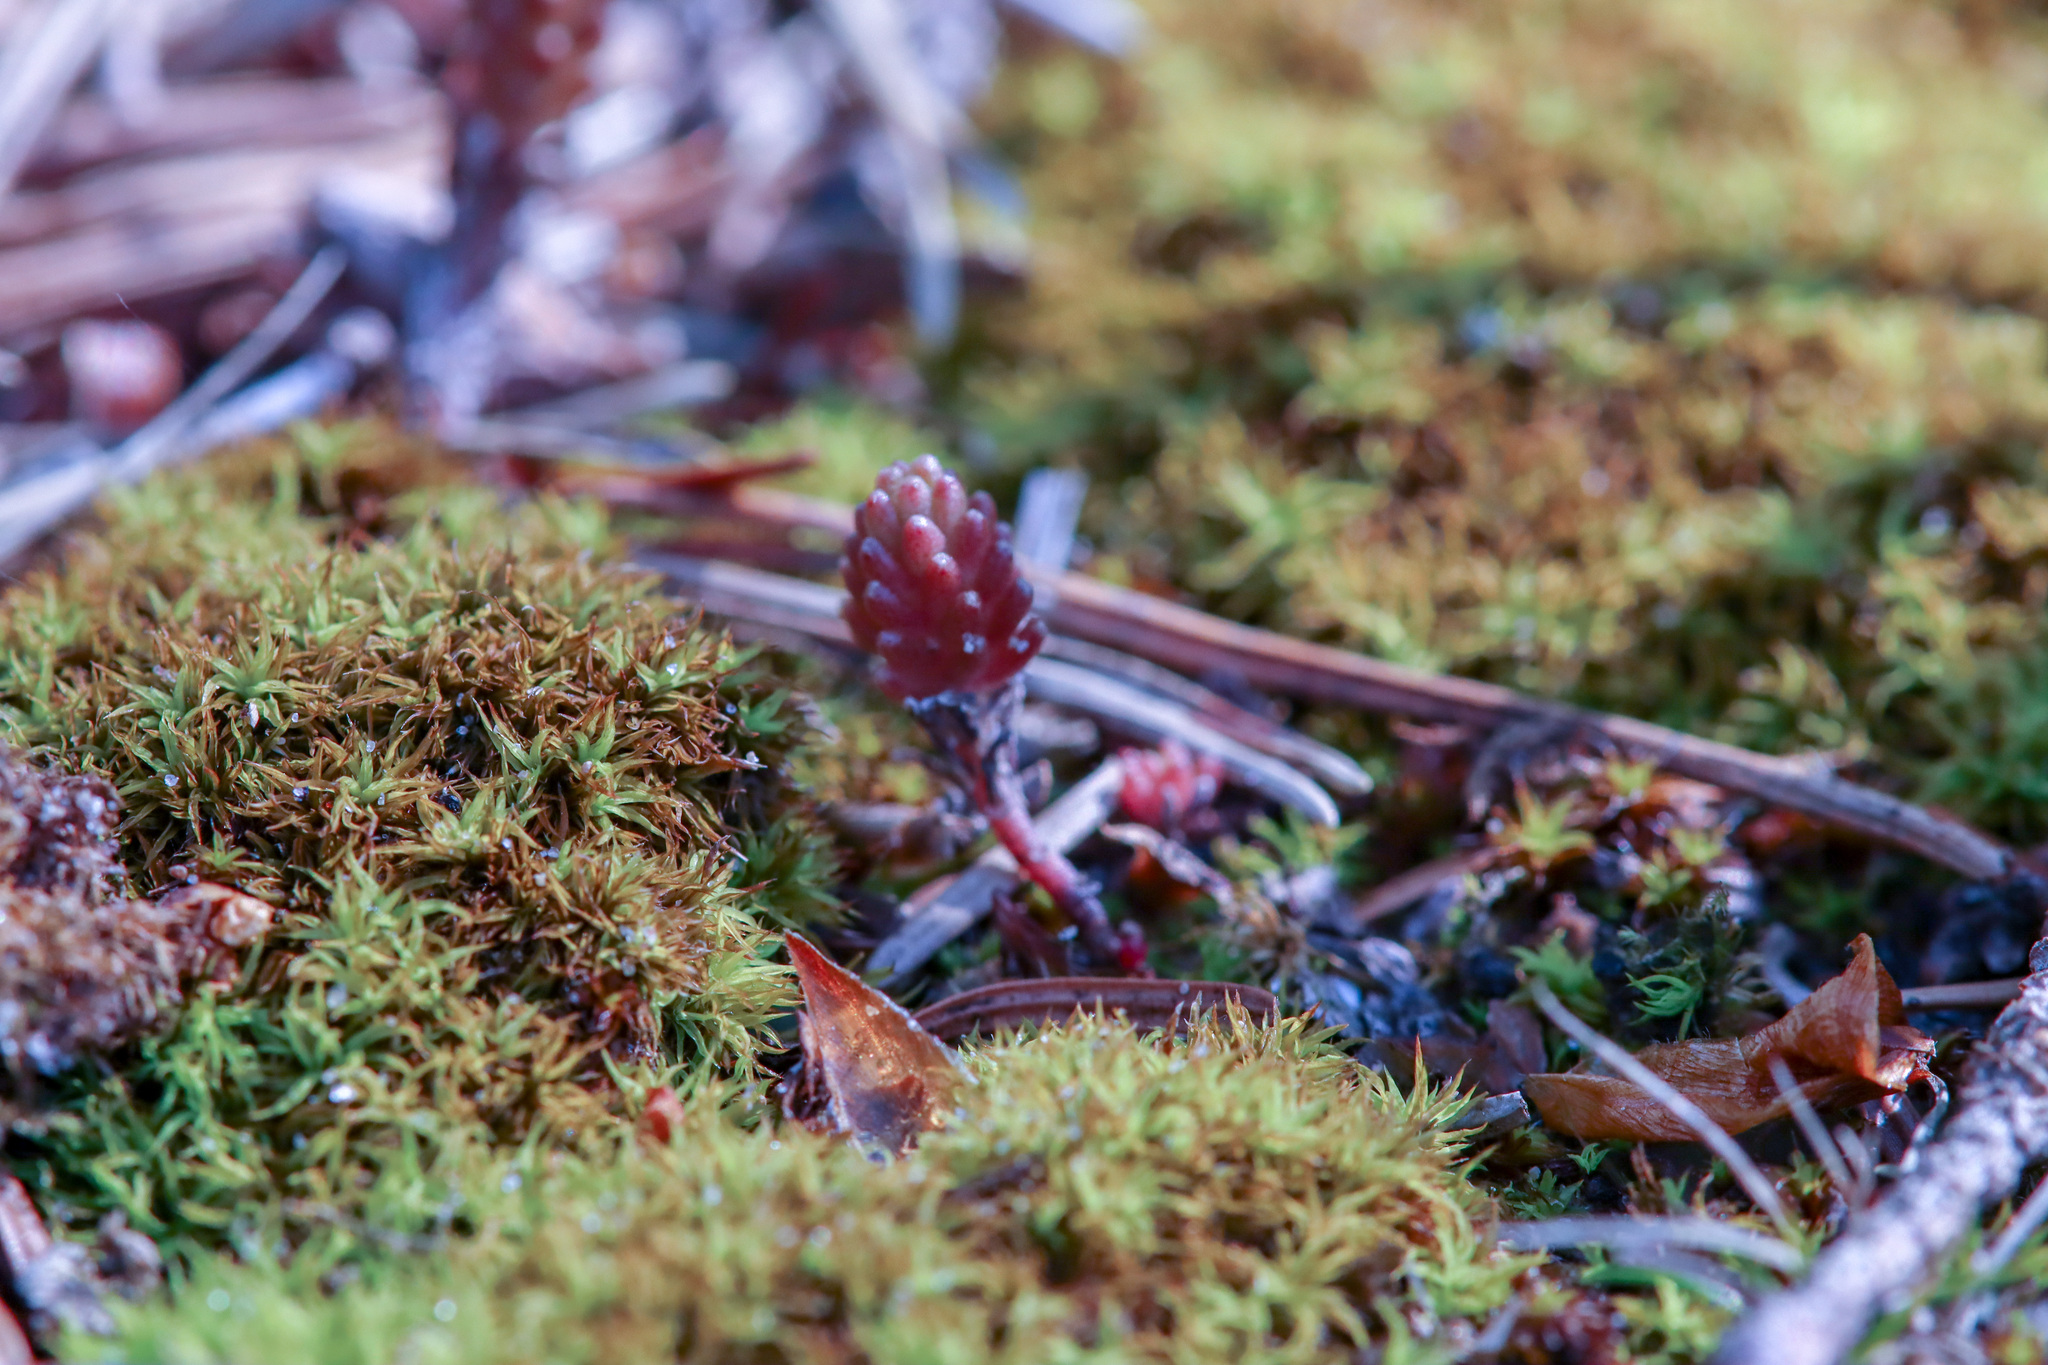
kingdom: Plantae
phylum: Tracheophyta
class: Magnoliopsida
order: Saxifragales
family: Crassulaceae
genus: Sedum
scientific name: Sedum sexangulare
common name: Tasteless stonecrop
